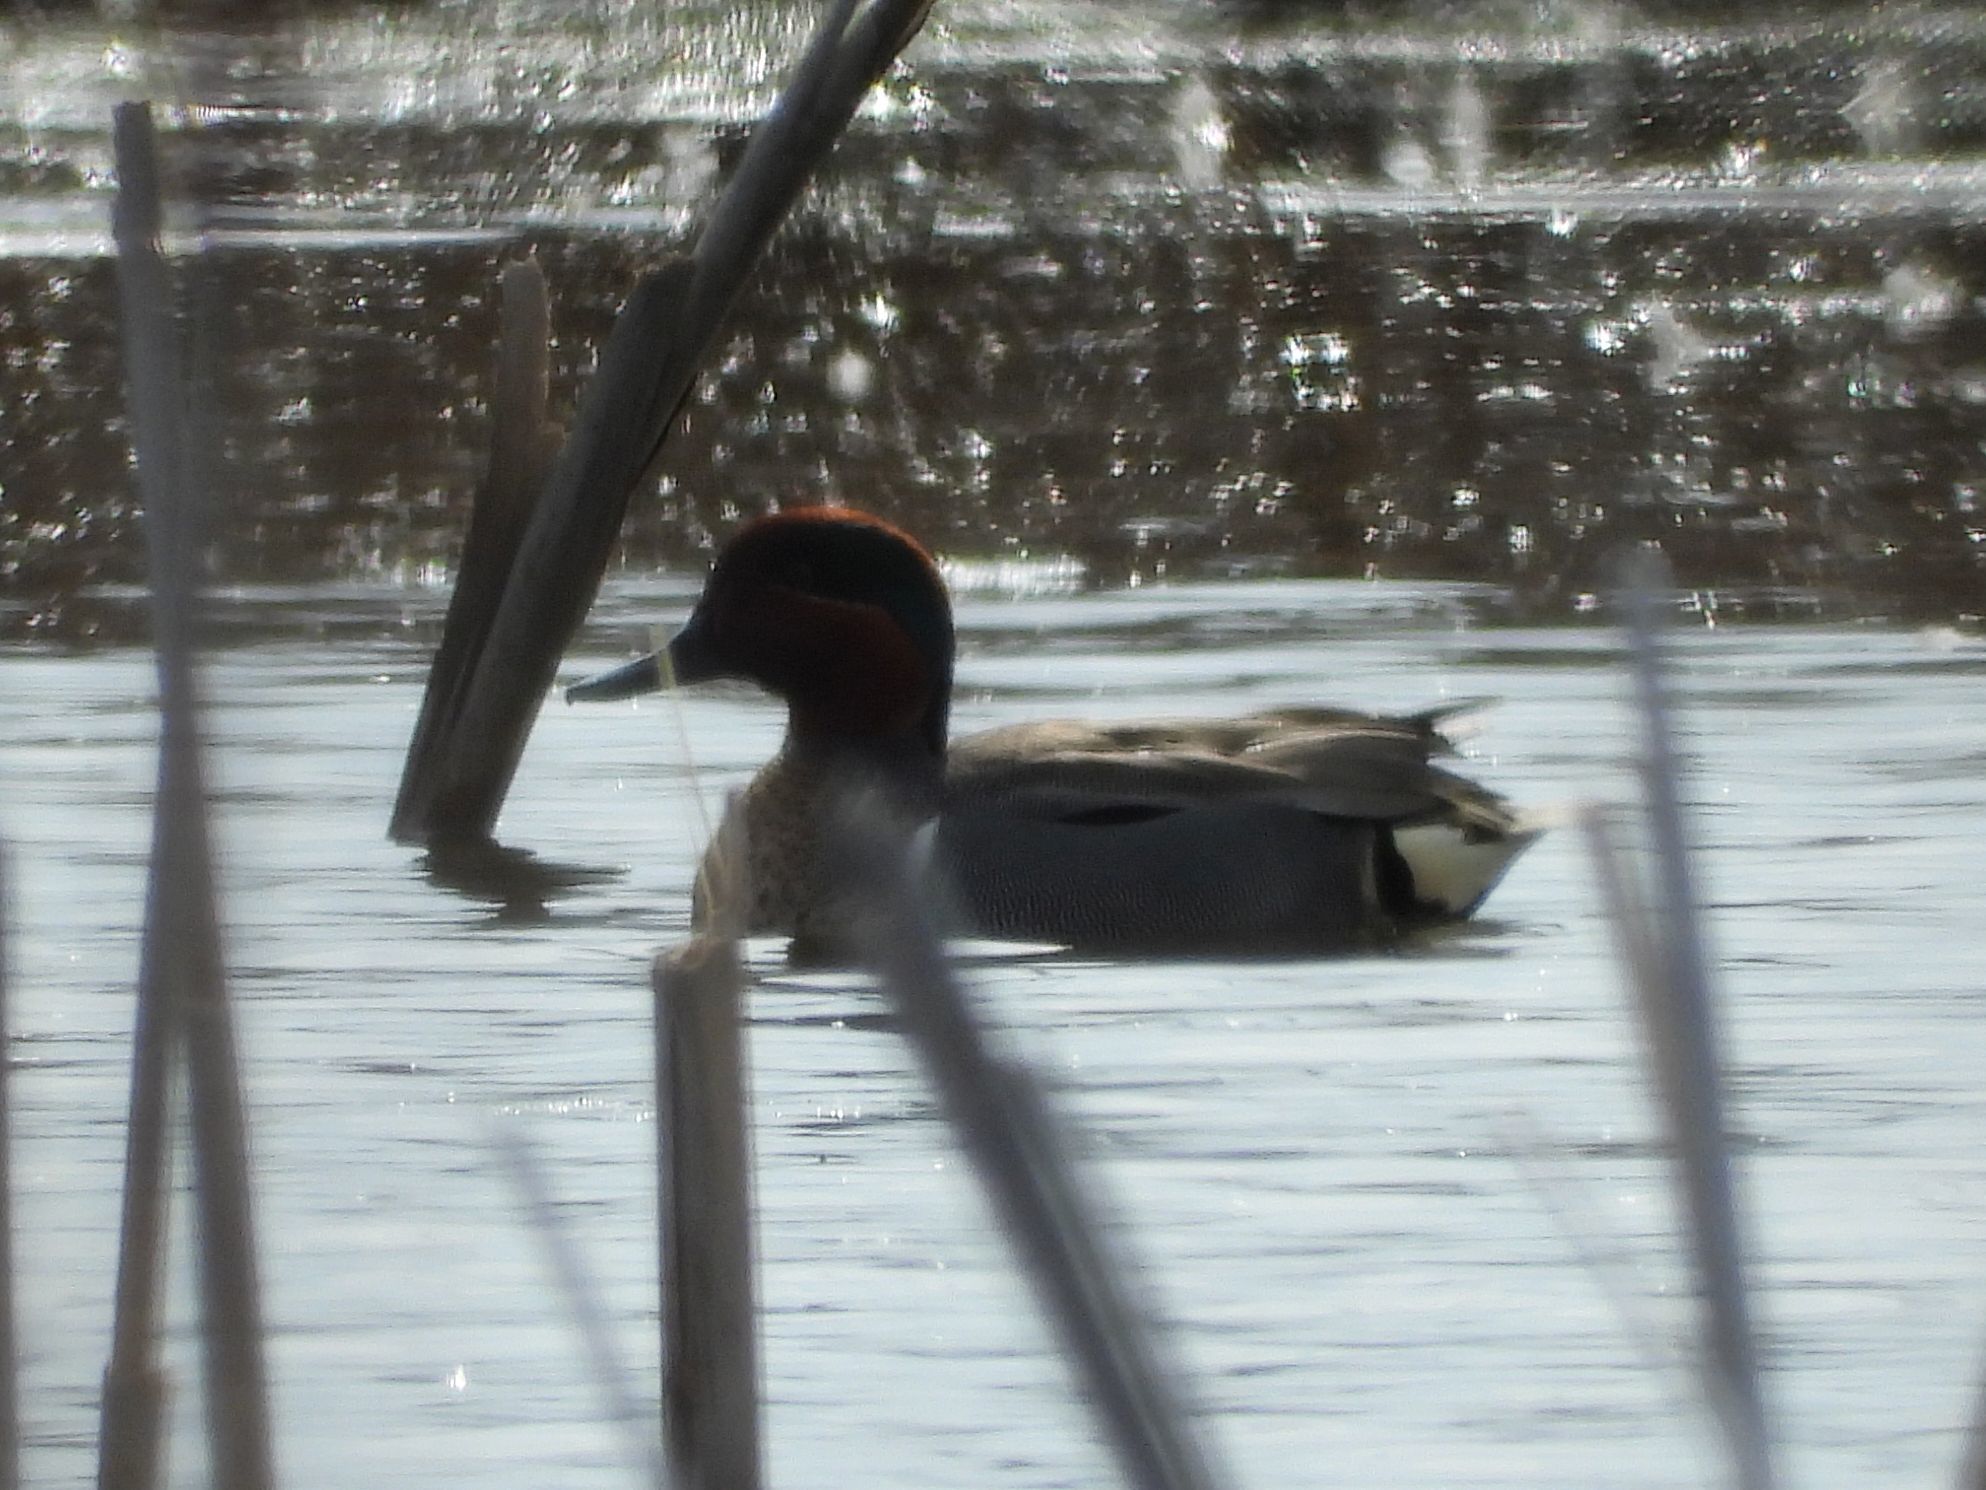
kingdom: Animalia
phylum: Chordata
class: Aves
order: Anseriformes
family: Anatidae
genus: Anas
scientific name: Anas crecca
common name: Eurasian teal
